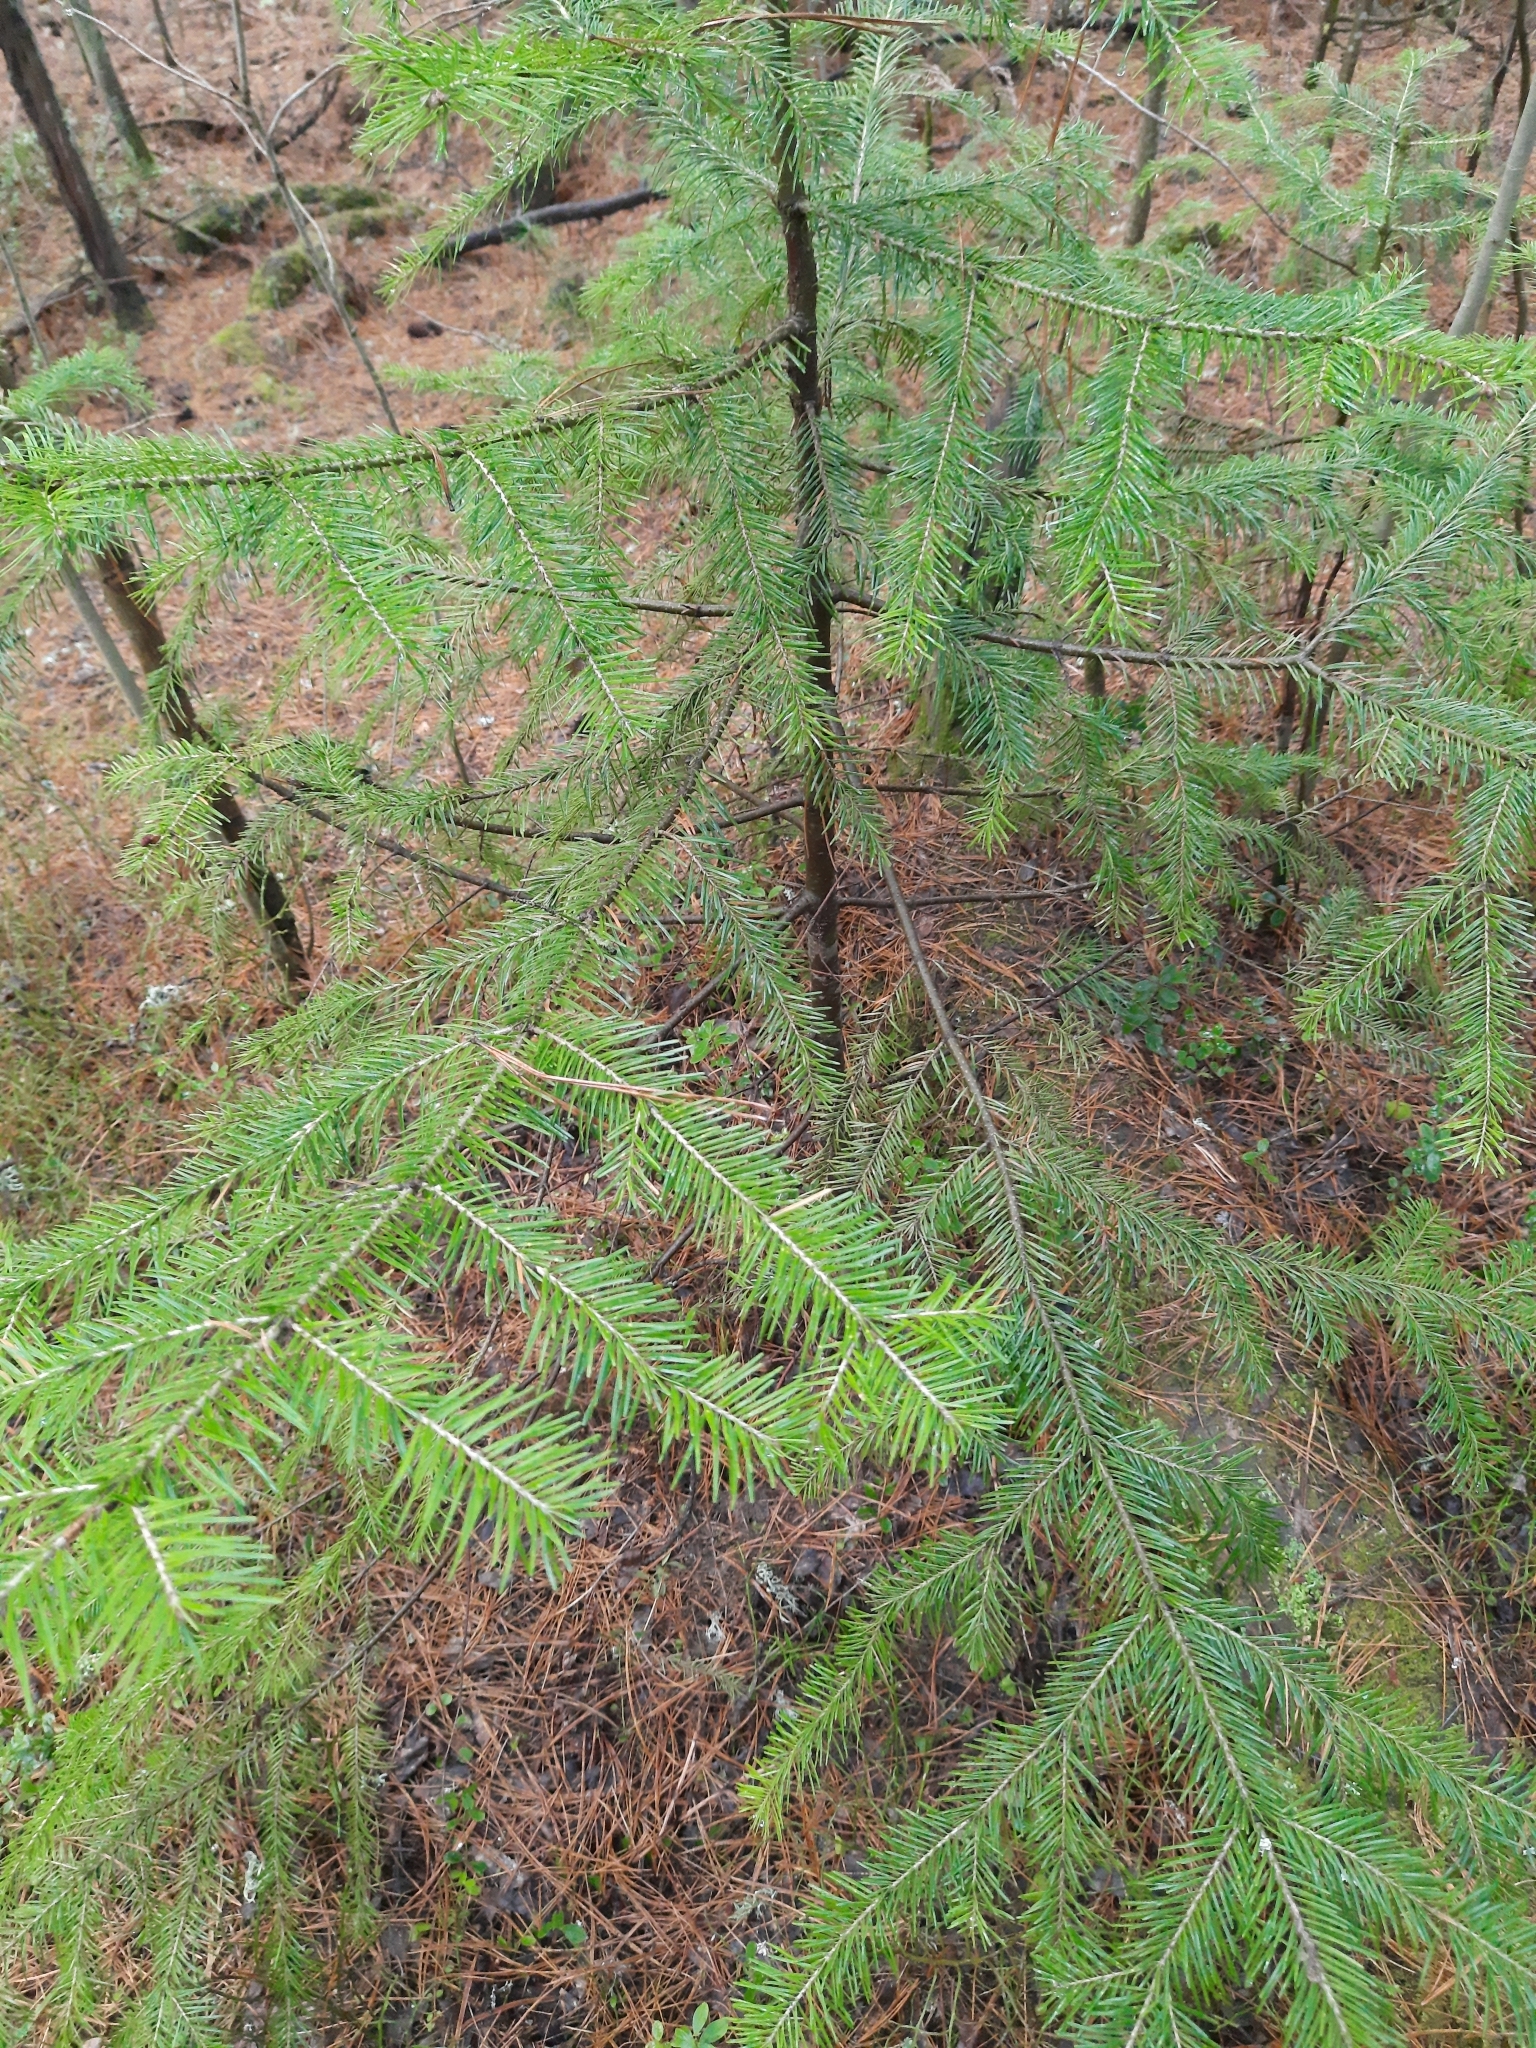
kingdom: Plantae
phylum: Tracheophyta
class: Pinopsida
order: Pinales
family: Pinaceae
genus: Abies
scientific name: Abies sibirica
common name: Siberian fir
